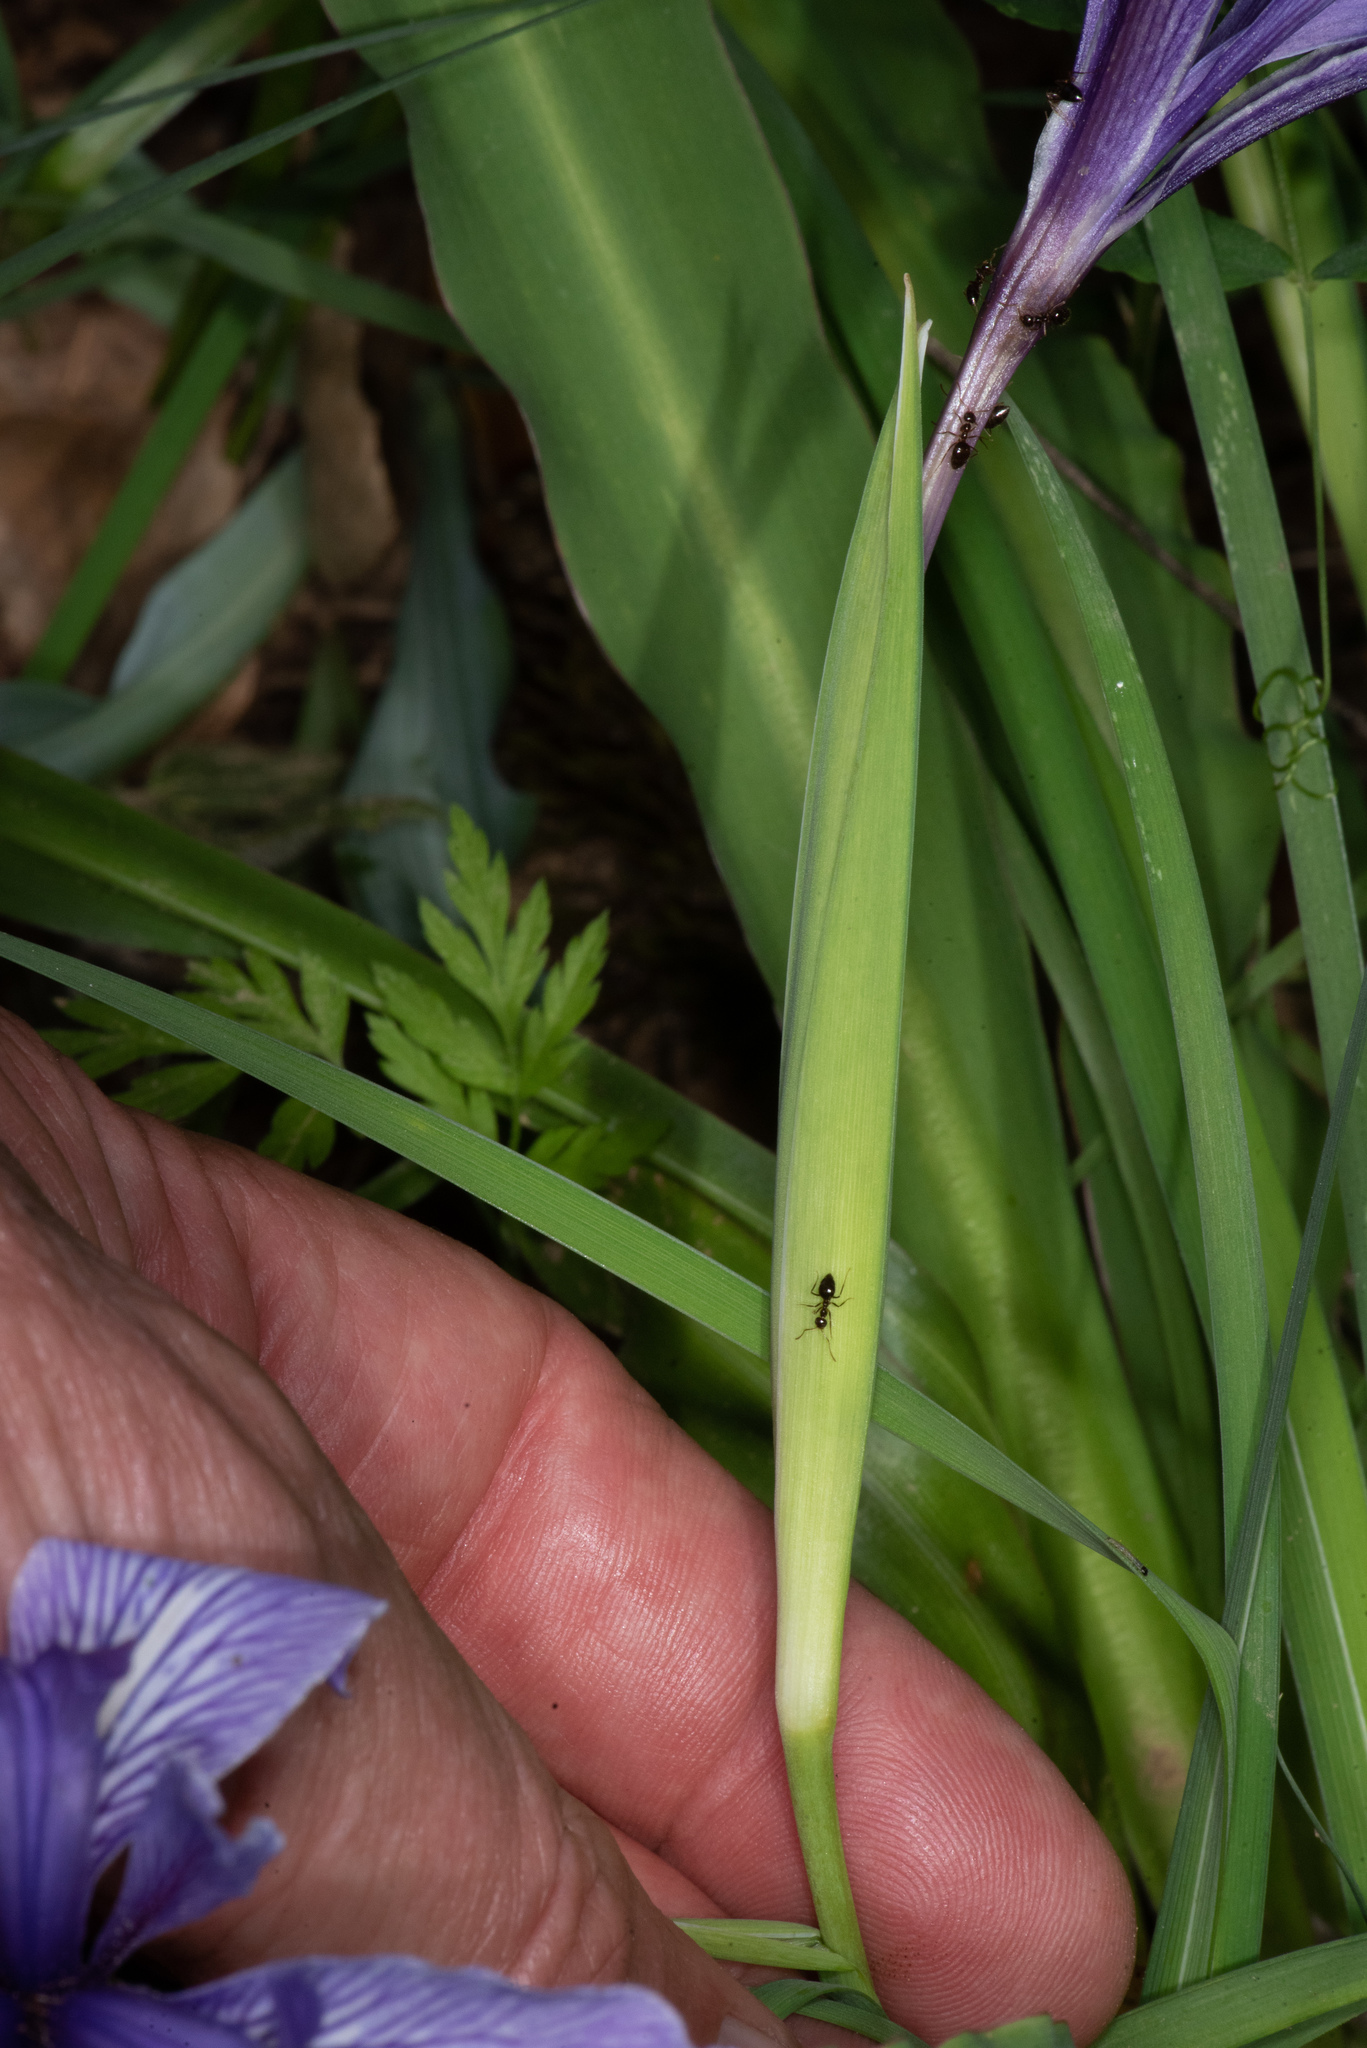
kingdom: Plantae
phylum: Tracheophyta
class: Liliopsida
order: Asparagales
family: Iridaceae
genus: Iris
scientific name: Iris macrosiphon
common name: Ground iris
